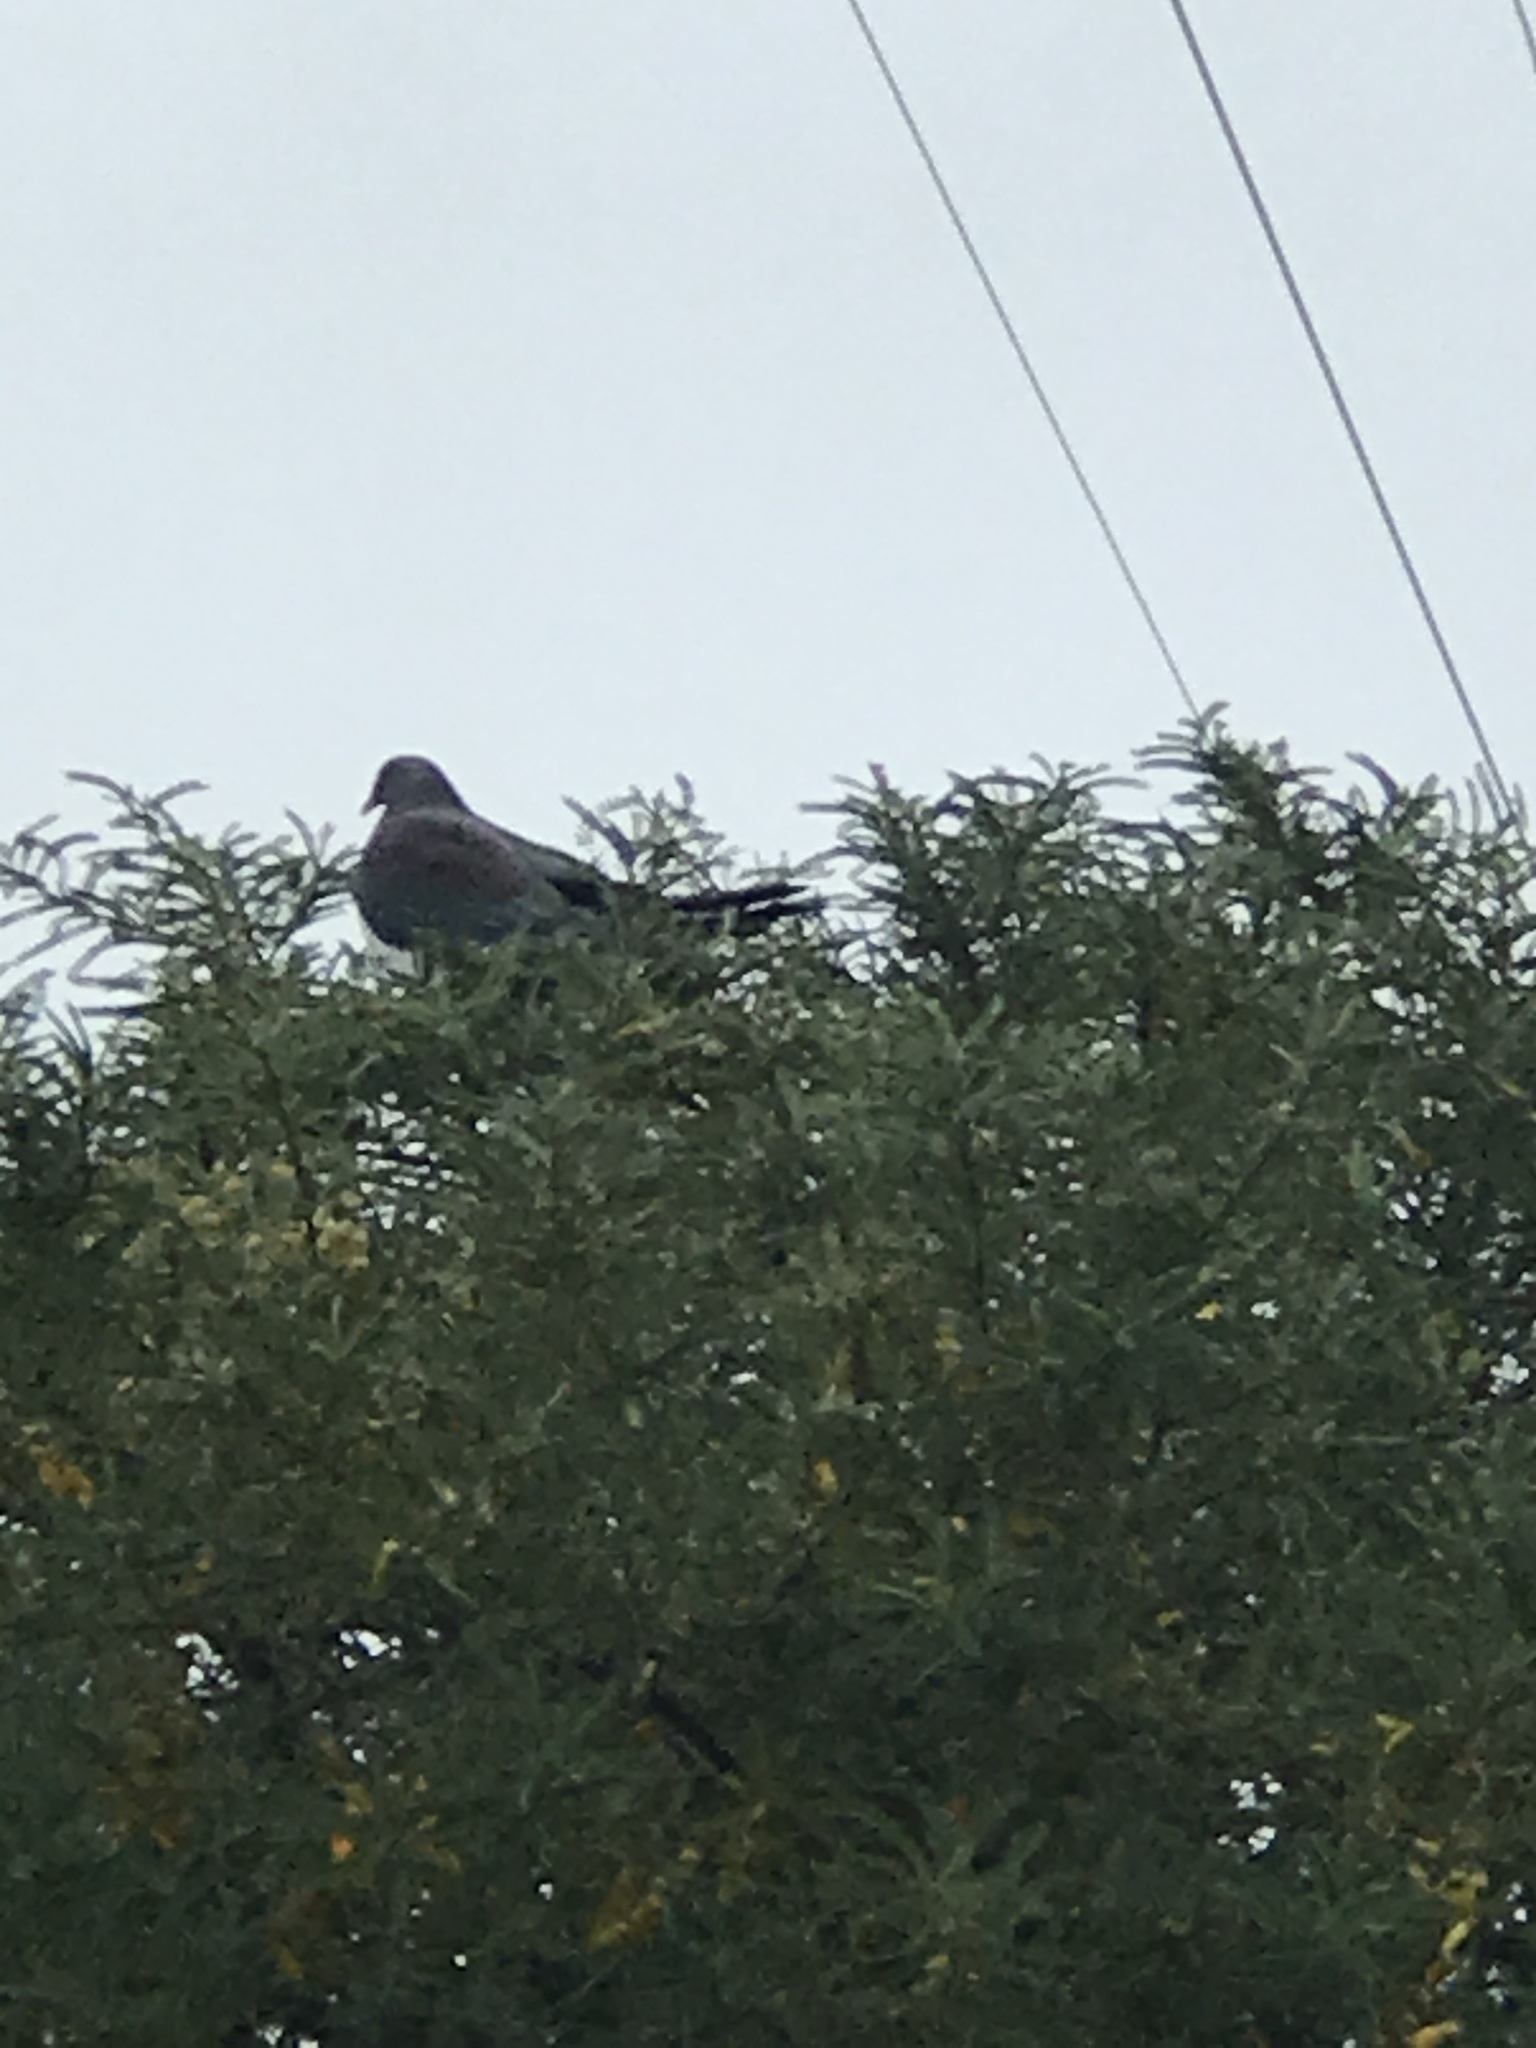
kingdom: Animalia
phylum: Chordata
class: Aves
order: Columbiformes
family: Columbidae
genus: Hemiphaga
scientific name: Hemiphaga novaeseelandiae
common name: New zealand pigeon
